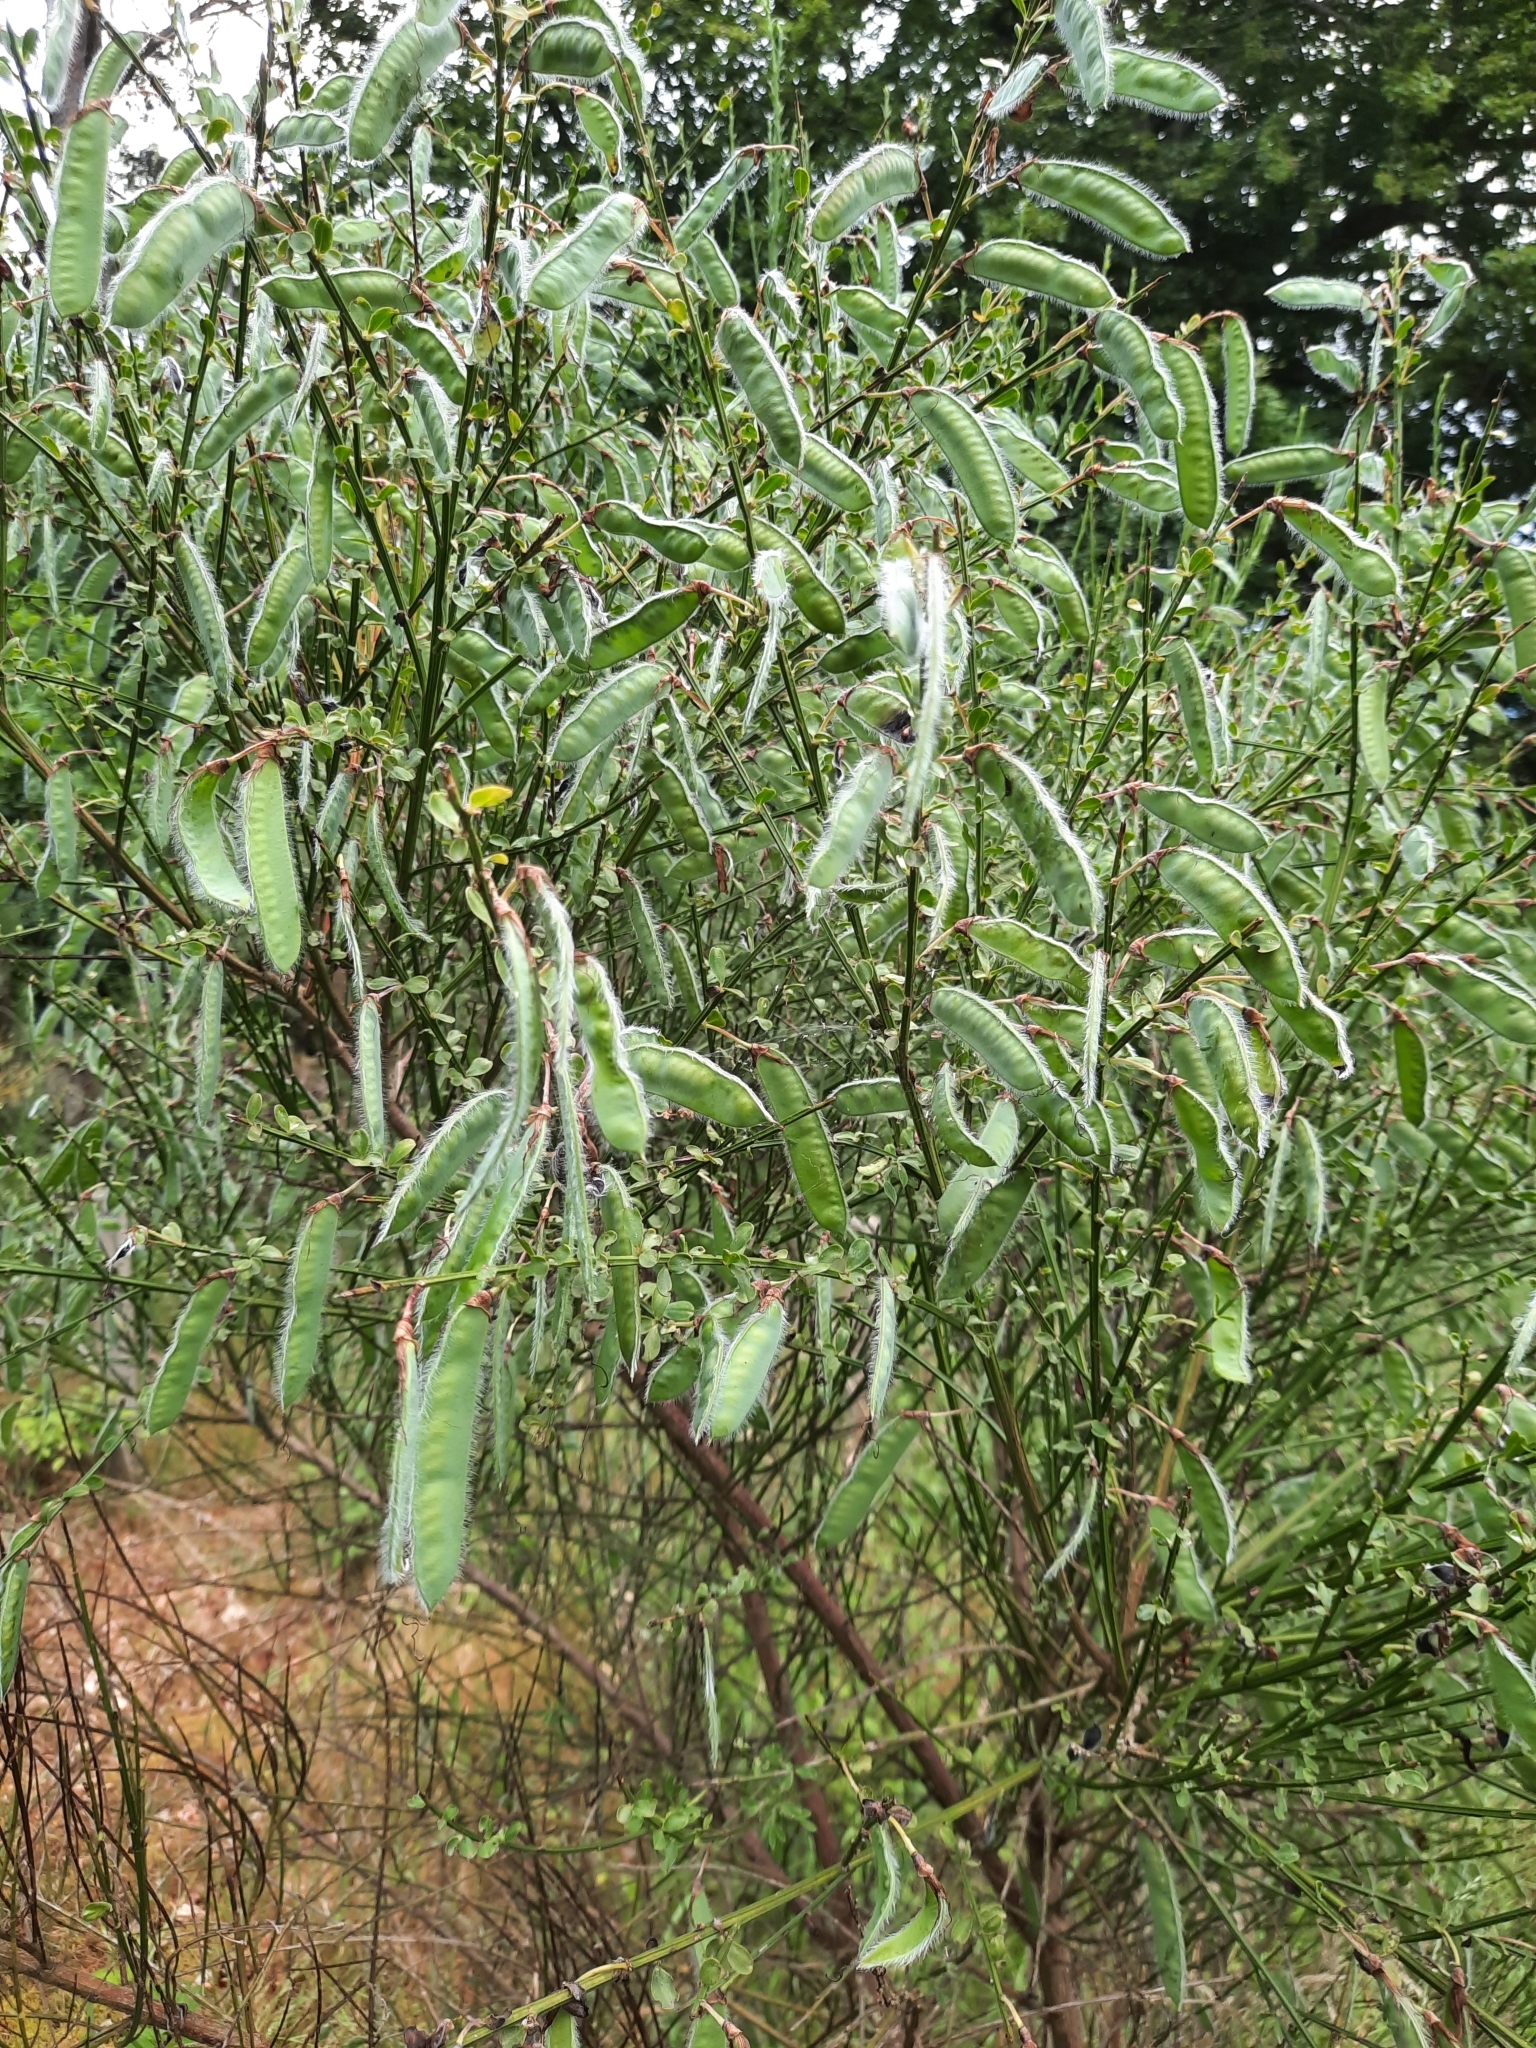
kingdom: Plantae
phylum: Tracheophyta
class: Magnoliopsida
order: Fabales
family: Fabaceae
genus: Cytisus
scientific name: Cytisus scoparius
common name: Scotch broom
